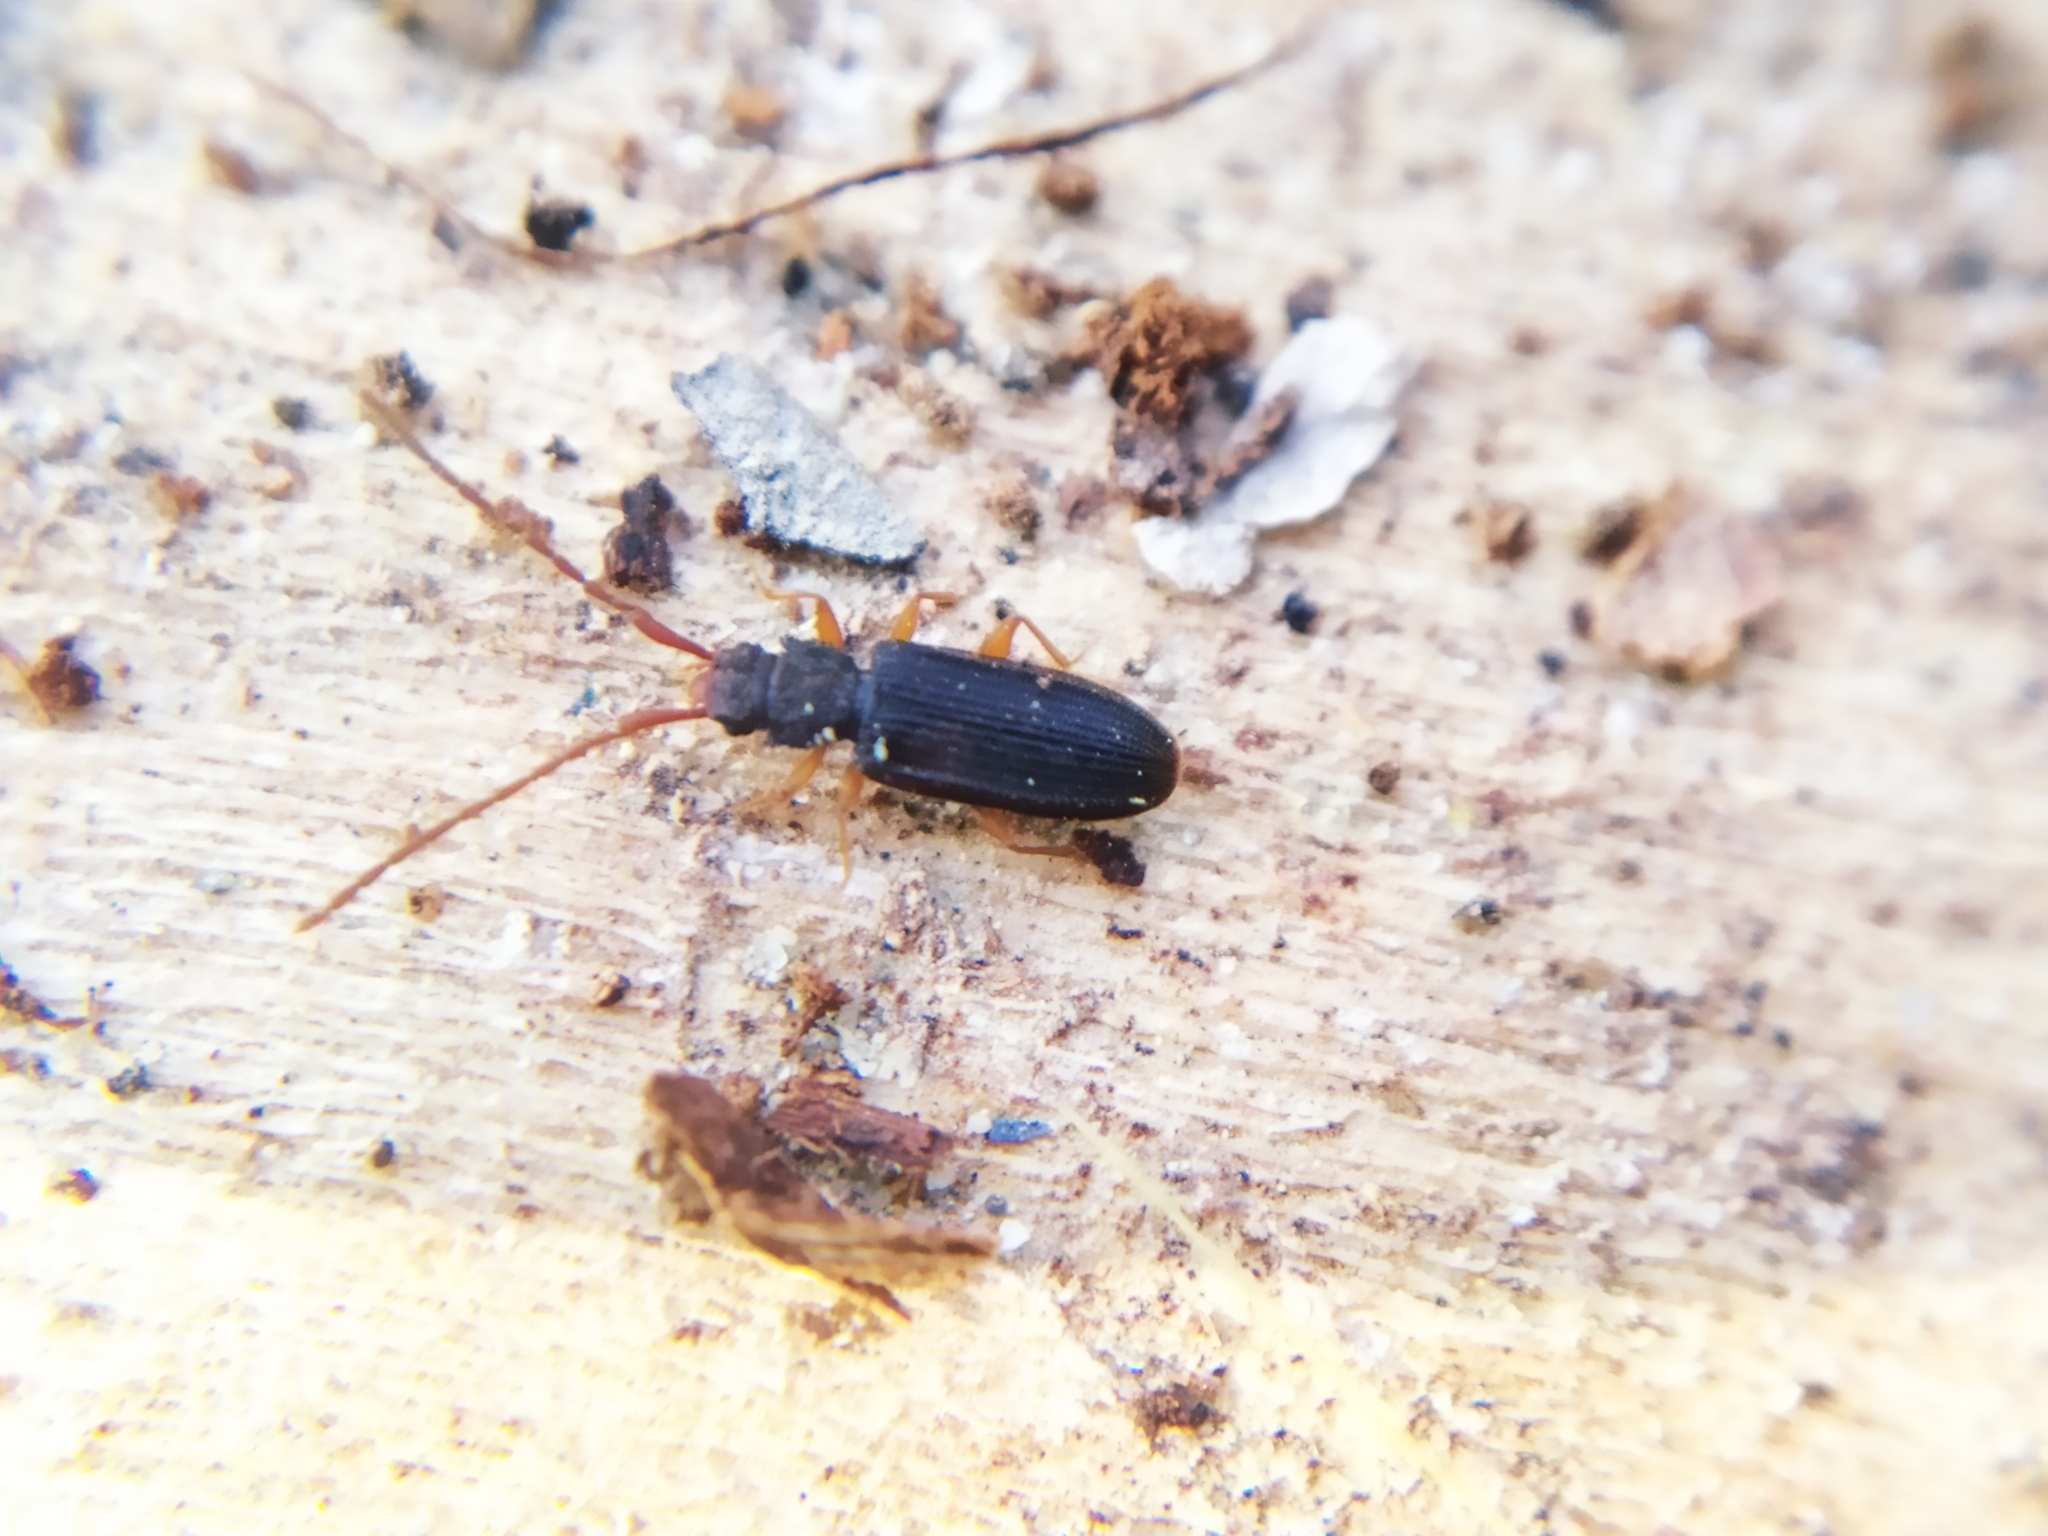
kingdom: Animalia
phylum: Arthropoda
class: Insecta
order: Coleoptera
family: Silvanidae
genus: Uleiota
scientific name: Uleiota planatus
